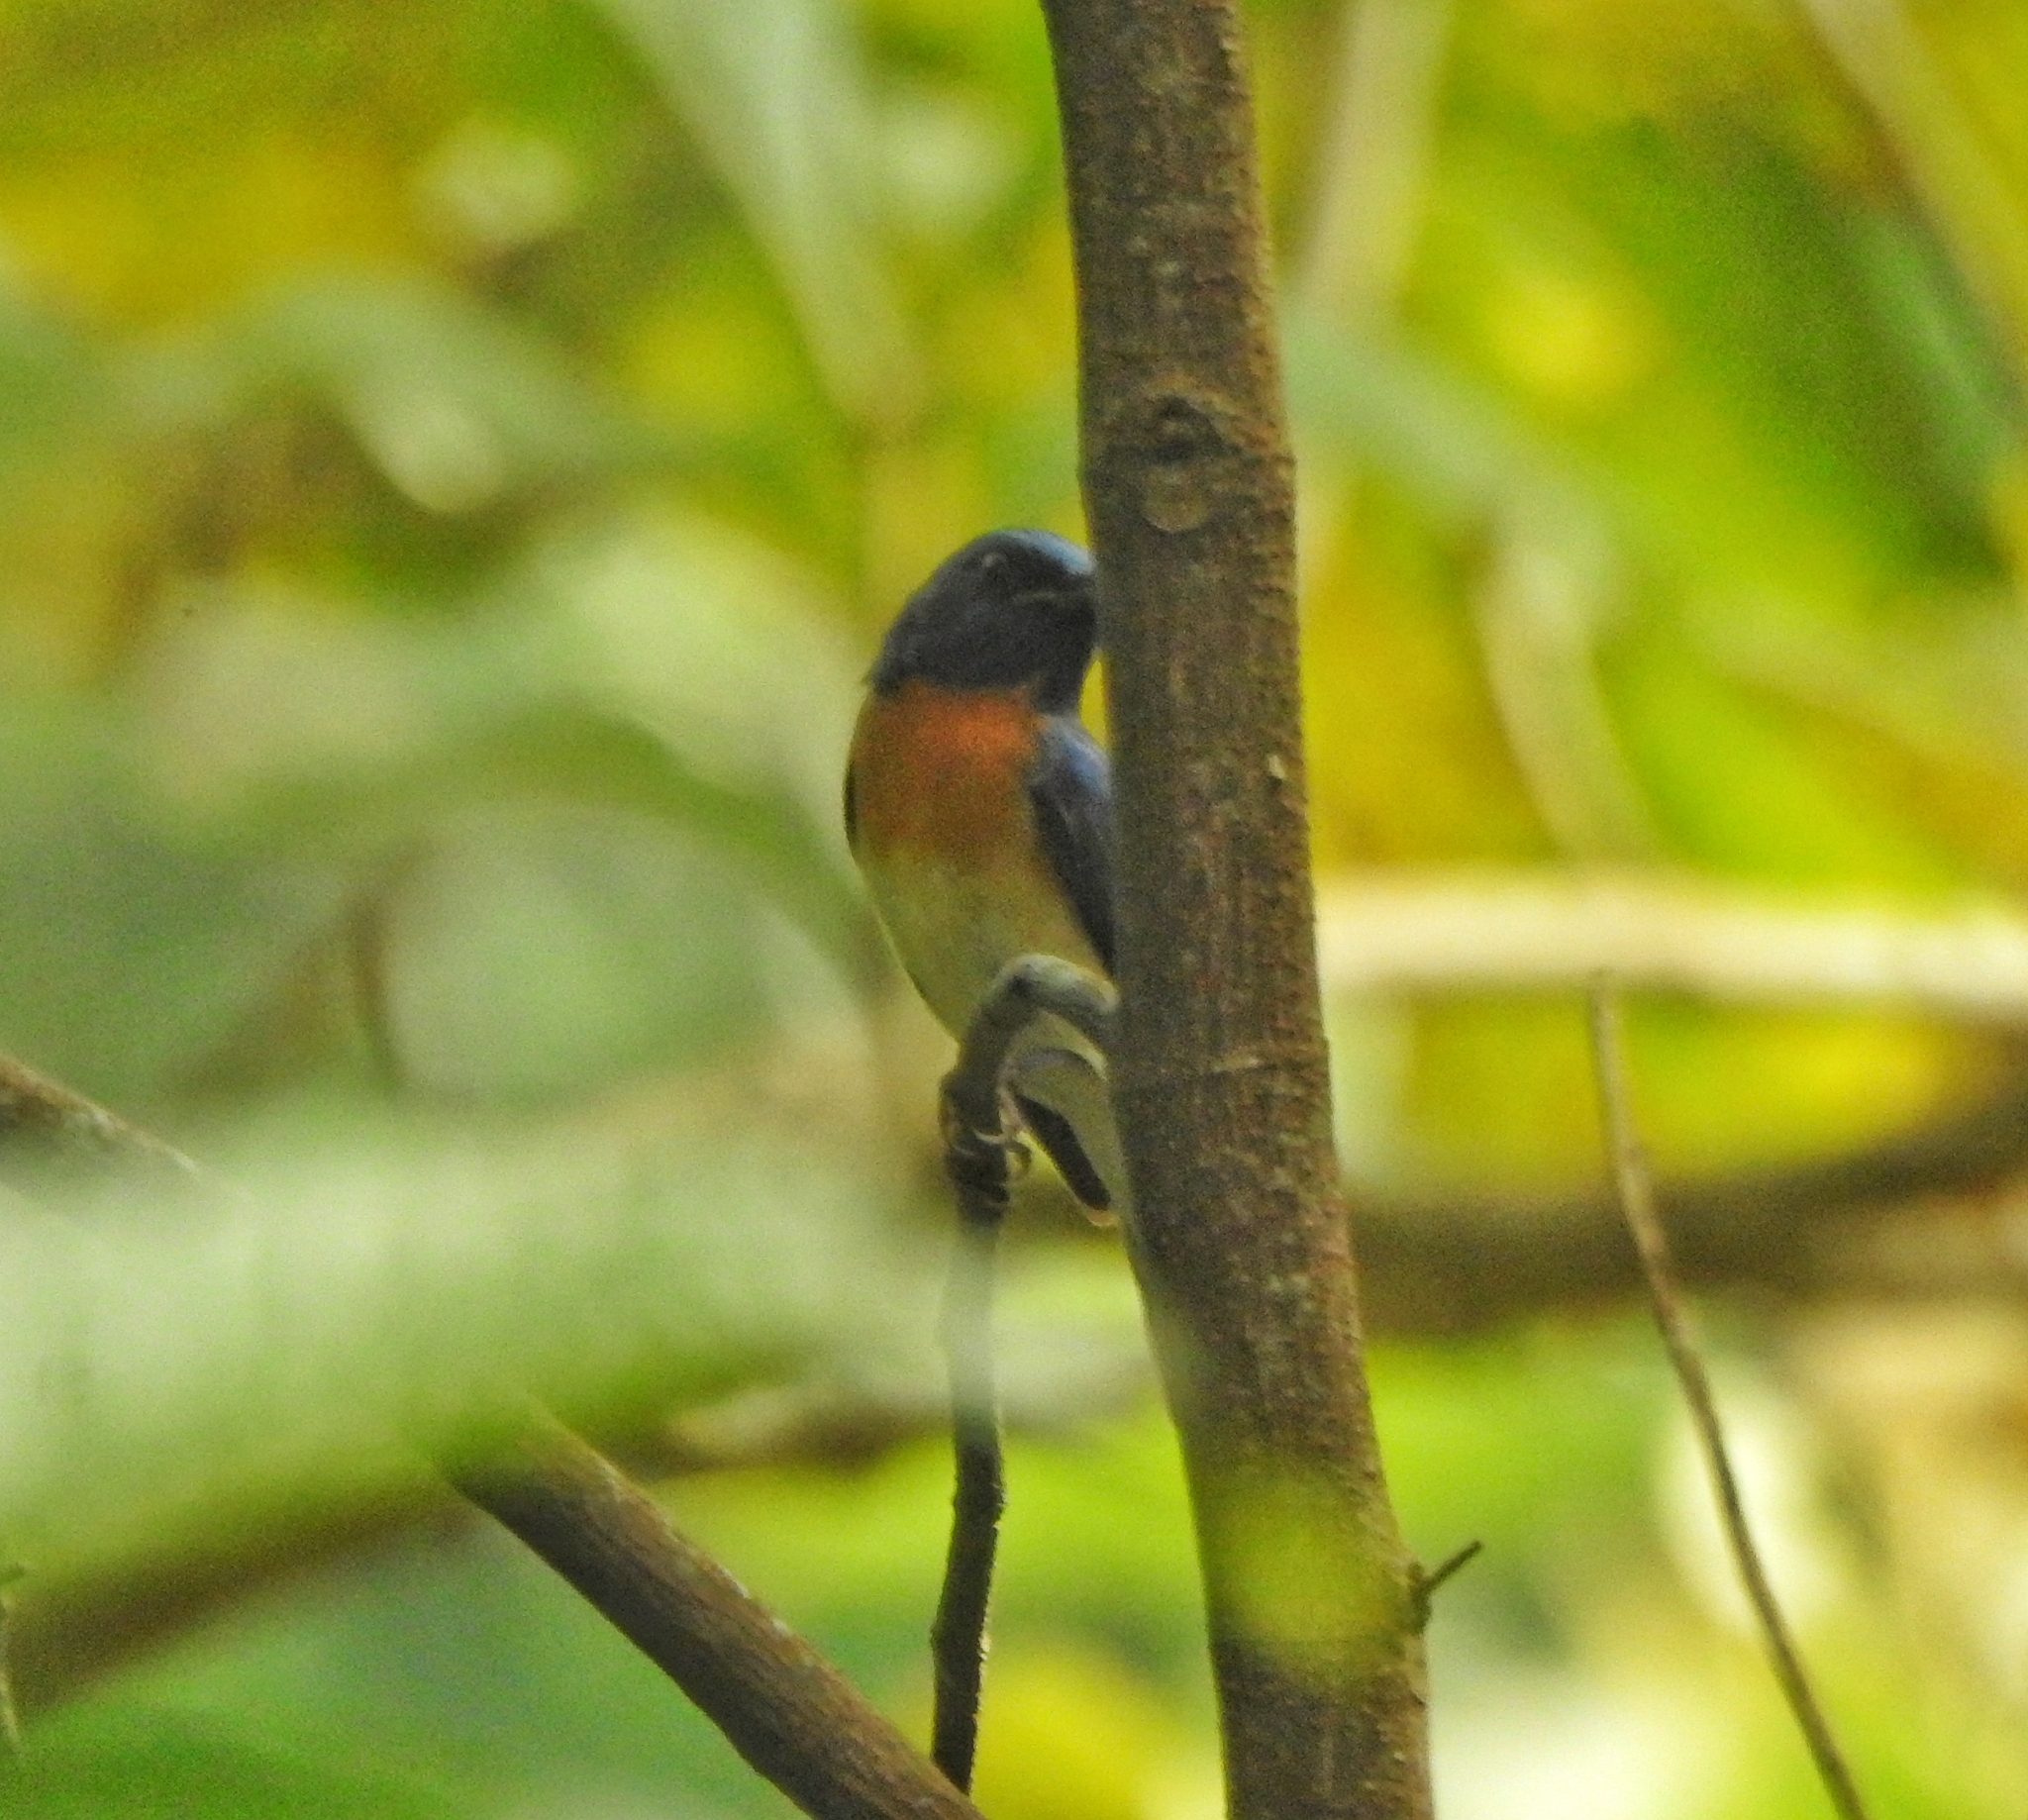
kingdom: Animalia
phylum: Chordata
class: Aves
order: Passeriformes
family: Muscicapidae
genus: Cyornis
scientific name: Cyornis rubeculoides
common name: Blue-throated blue flycatcher
